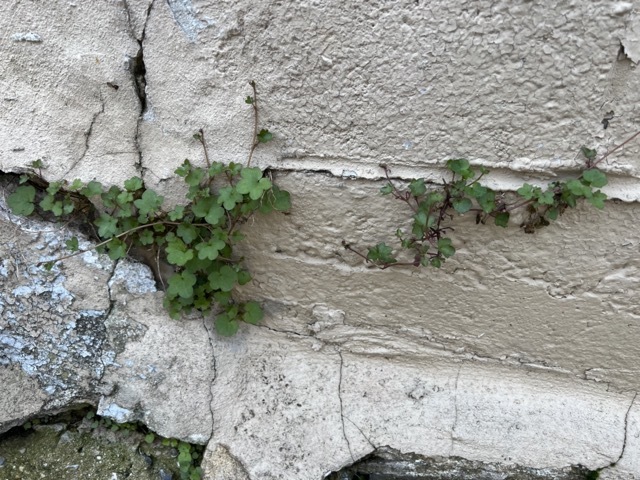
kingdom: Plantae
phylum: Tracheophyta
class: Magnoliopsida
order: Lamiales
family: Plantaginaceae
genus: Cymbalaria
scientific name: Cymbalaria muralis
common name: Ivy-leaved toadflax
